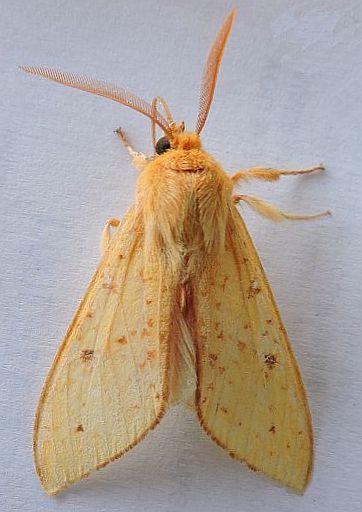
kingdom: Animalia
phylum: Arthropoda
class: Insecta
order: Lepidoptera
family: Erebidae
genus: Lophocampa
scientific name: Lophocampa pura
